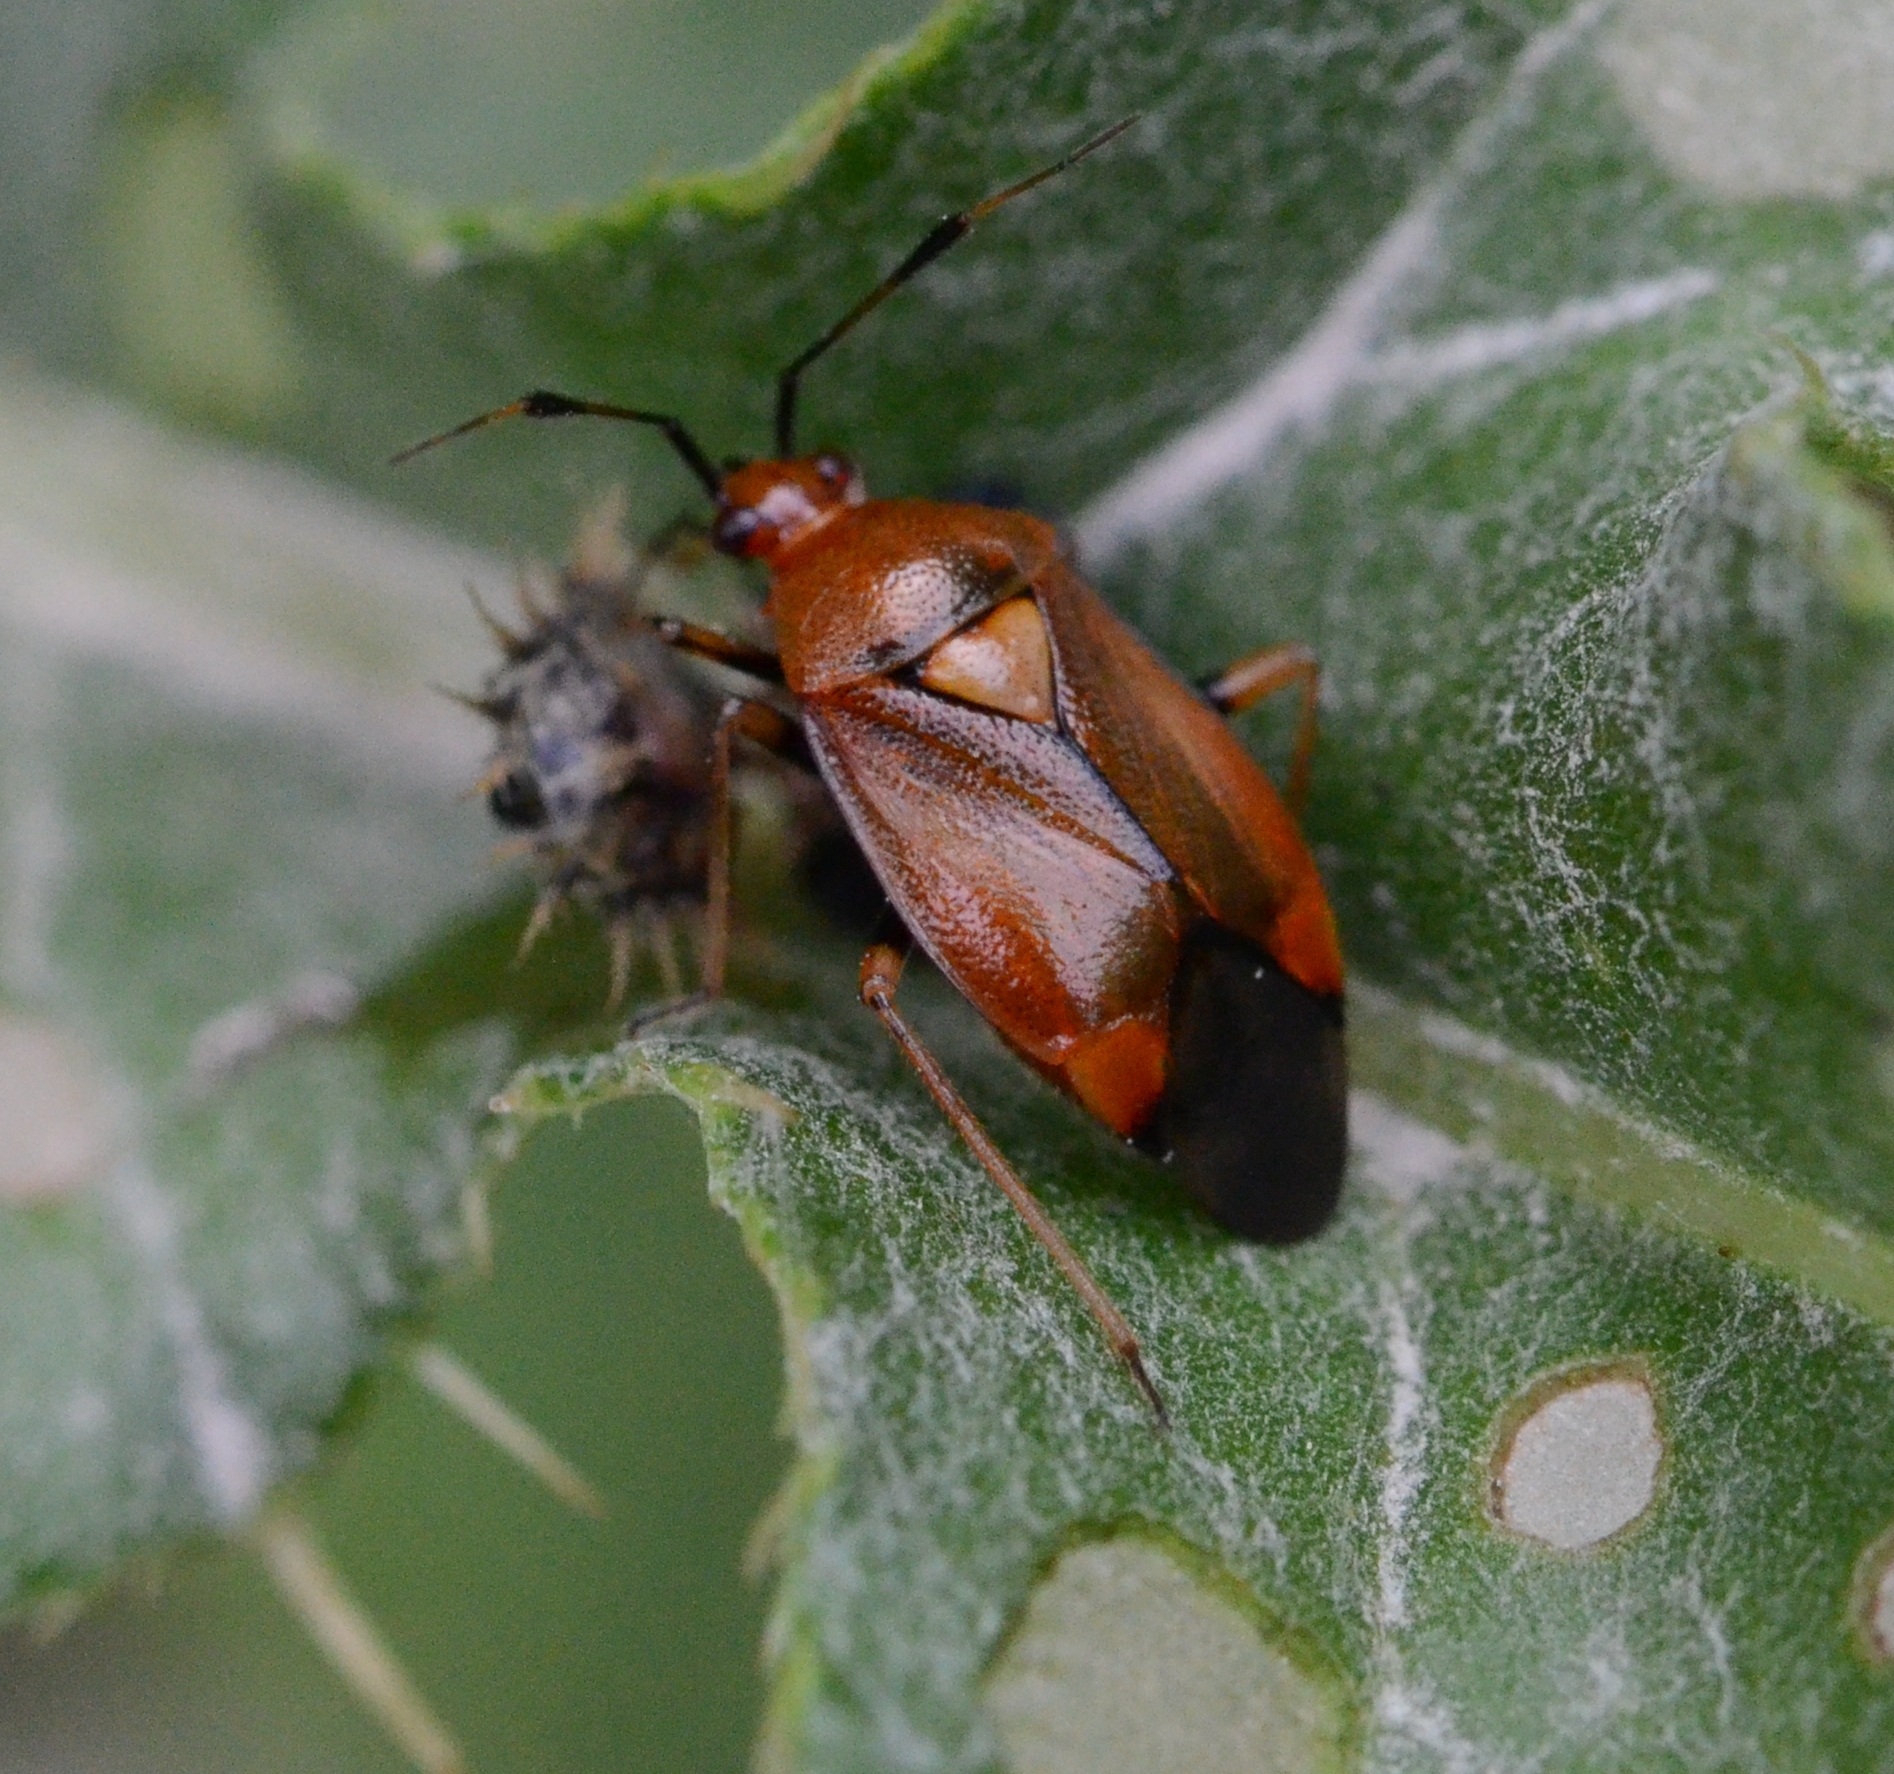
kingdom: Animalia
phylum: Arthropoda
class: Insecta
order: Hemiptera
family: Miridae
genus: Deraeocoris
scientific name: Deraeocoris ruber
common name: Plant bug
